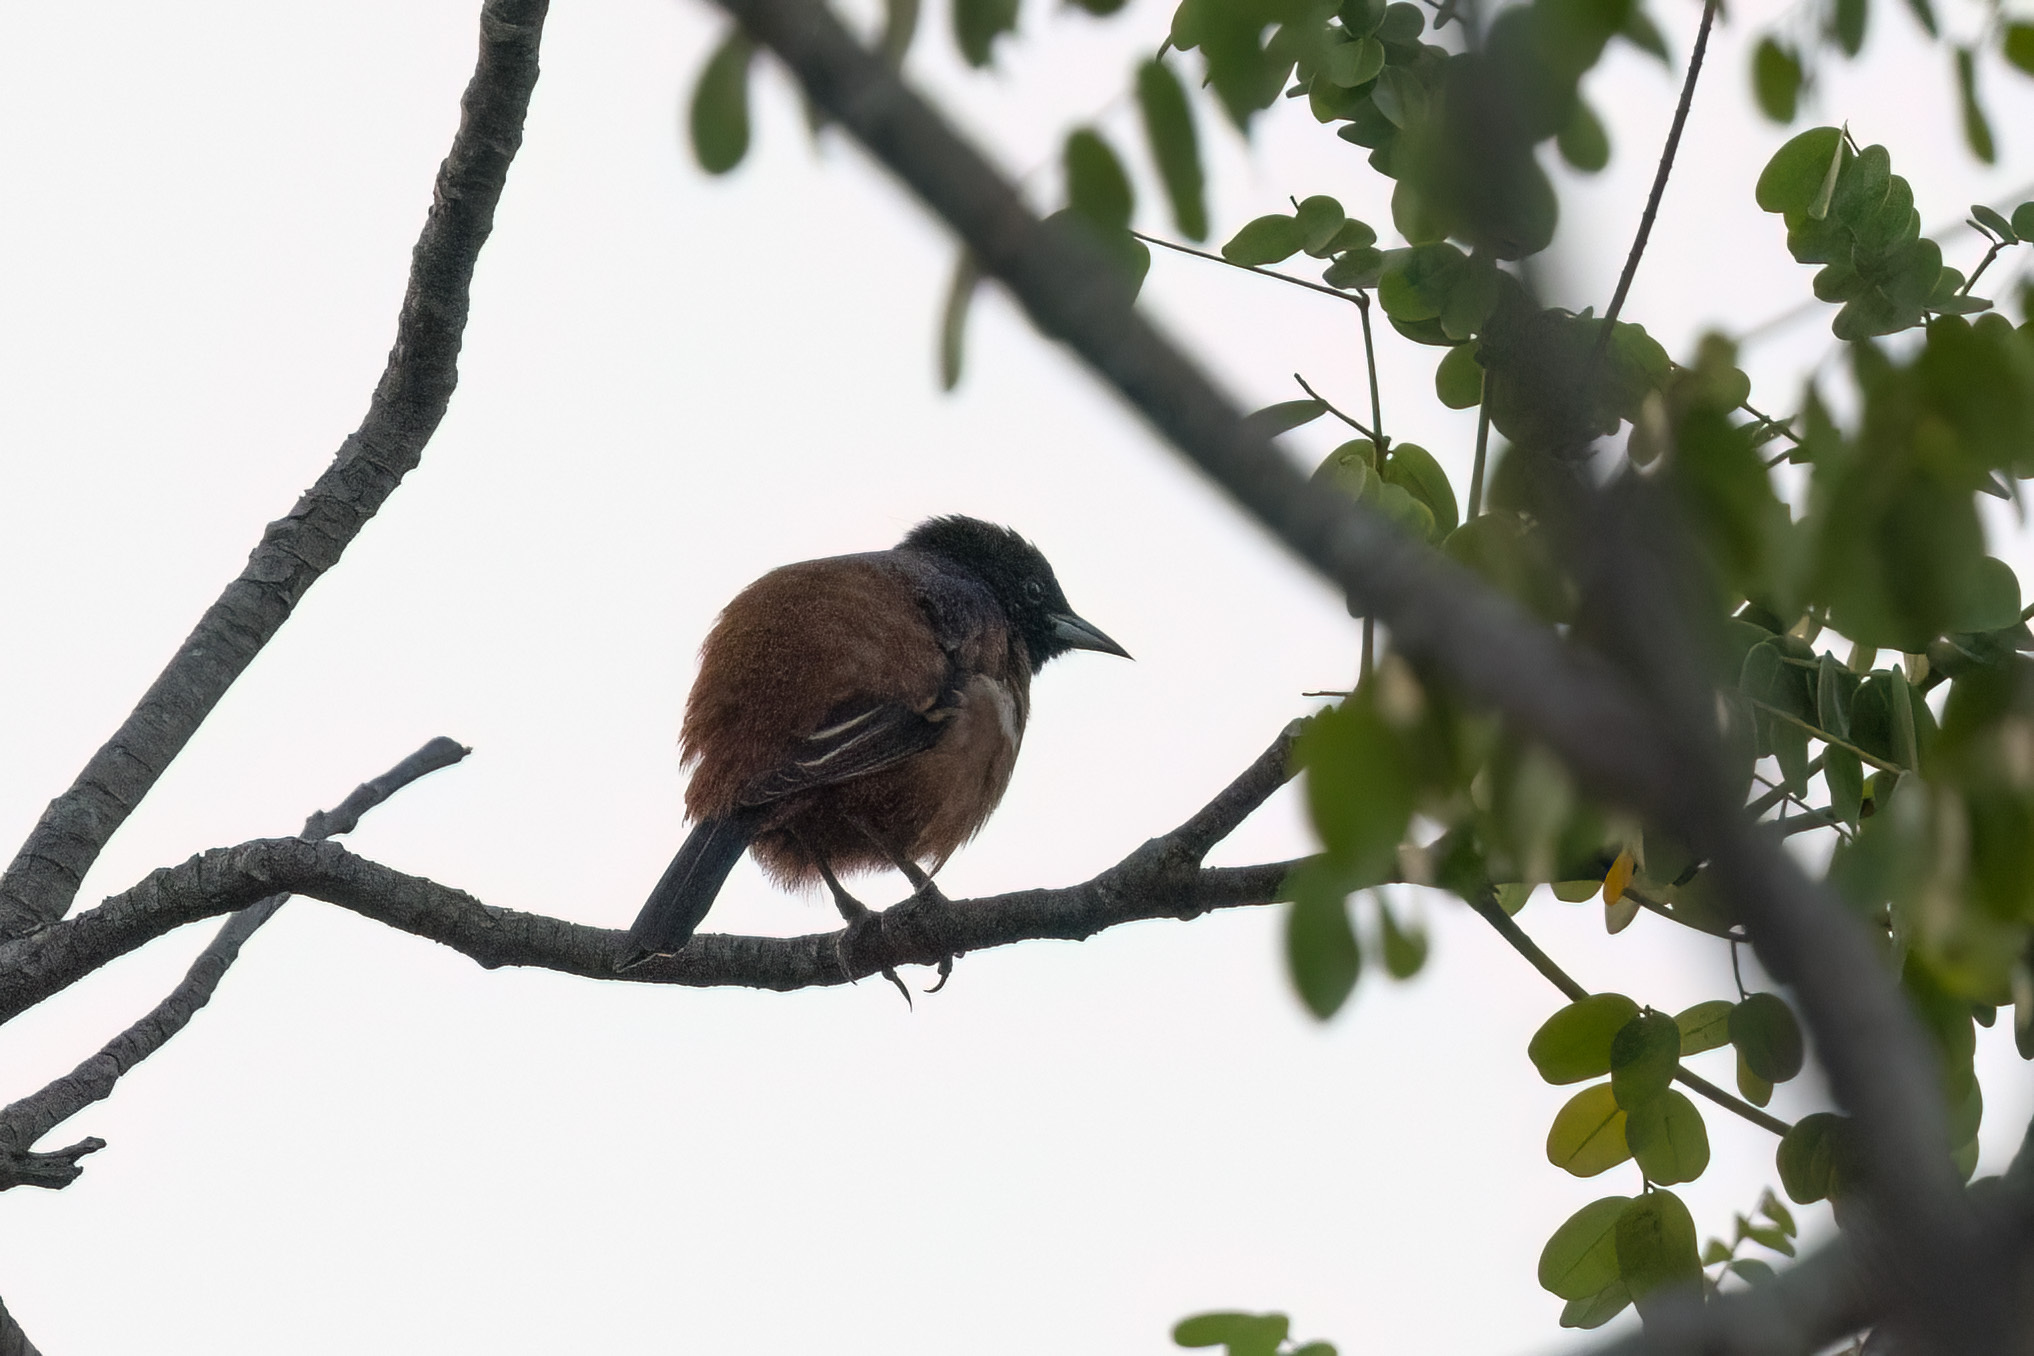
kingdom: Animalia
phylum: Chordata
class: Aves
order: Passeriformes
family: Icteridae
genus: Icterus
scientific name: Icterus spurius
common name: Orchard oriole
